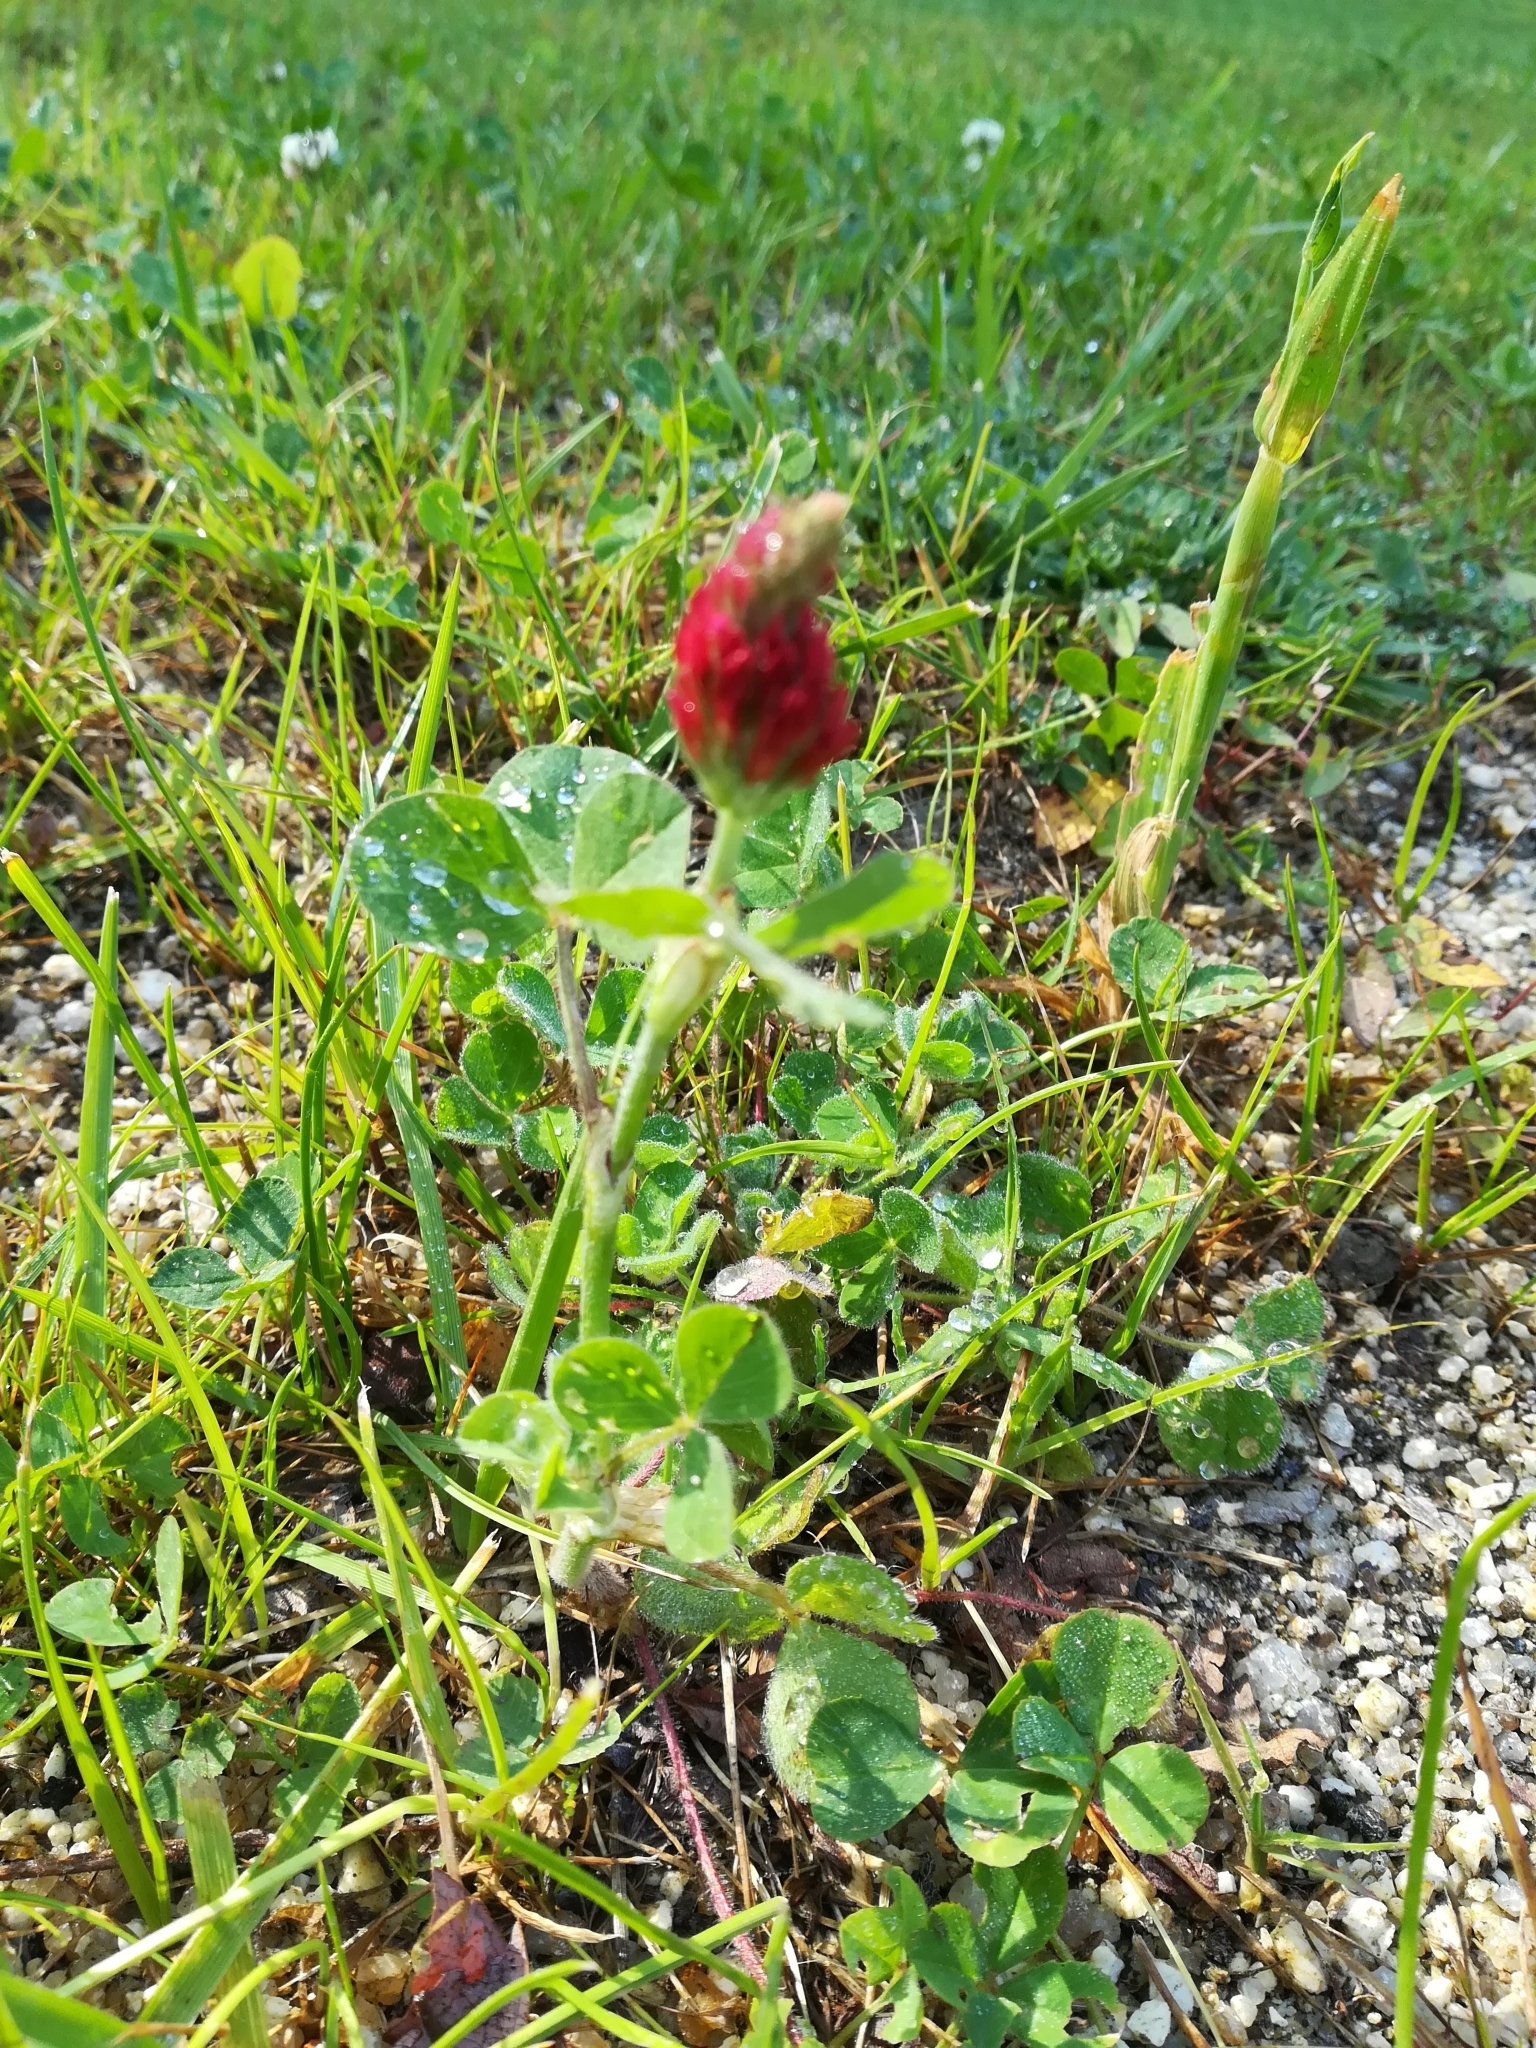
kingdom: Plantae
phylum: Tracheophyta
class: Magnoliopsida
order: Fabales
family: Fabaceae
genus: Trifolium
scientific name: Trifolium incarnatum
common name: Crimson clover
